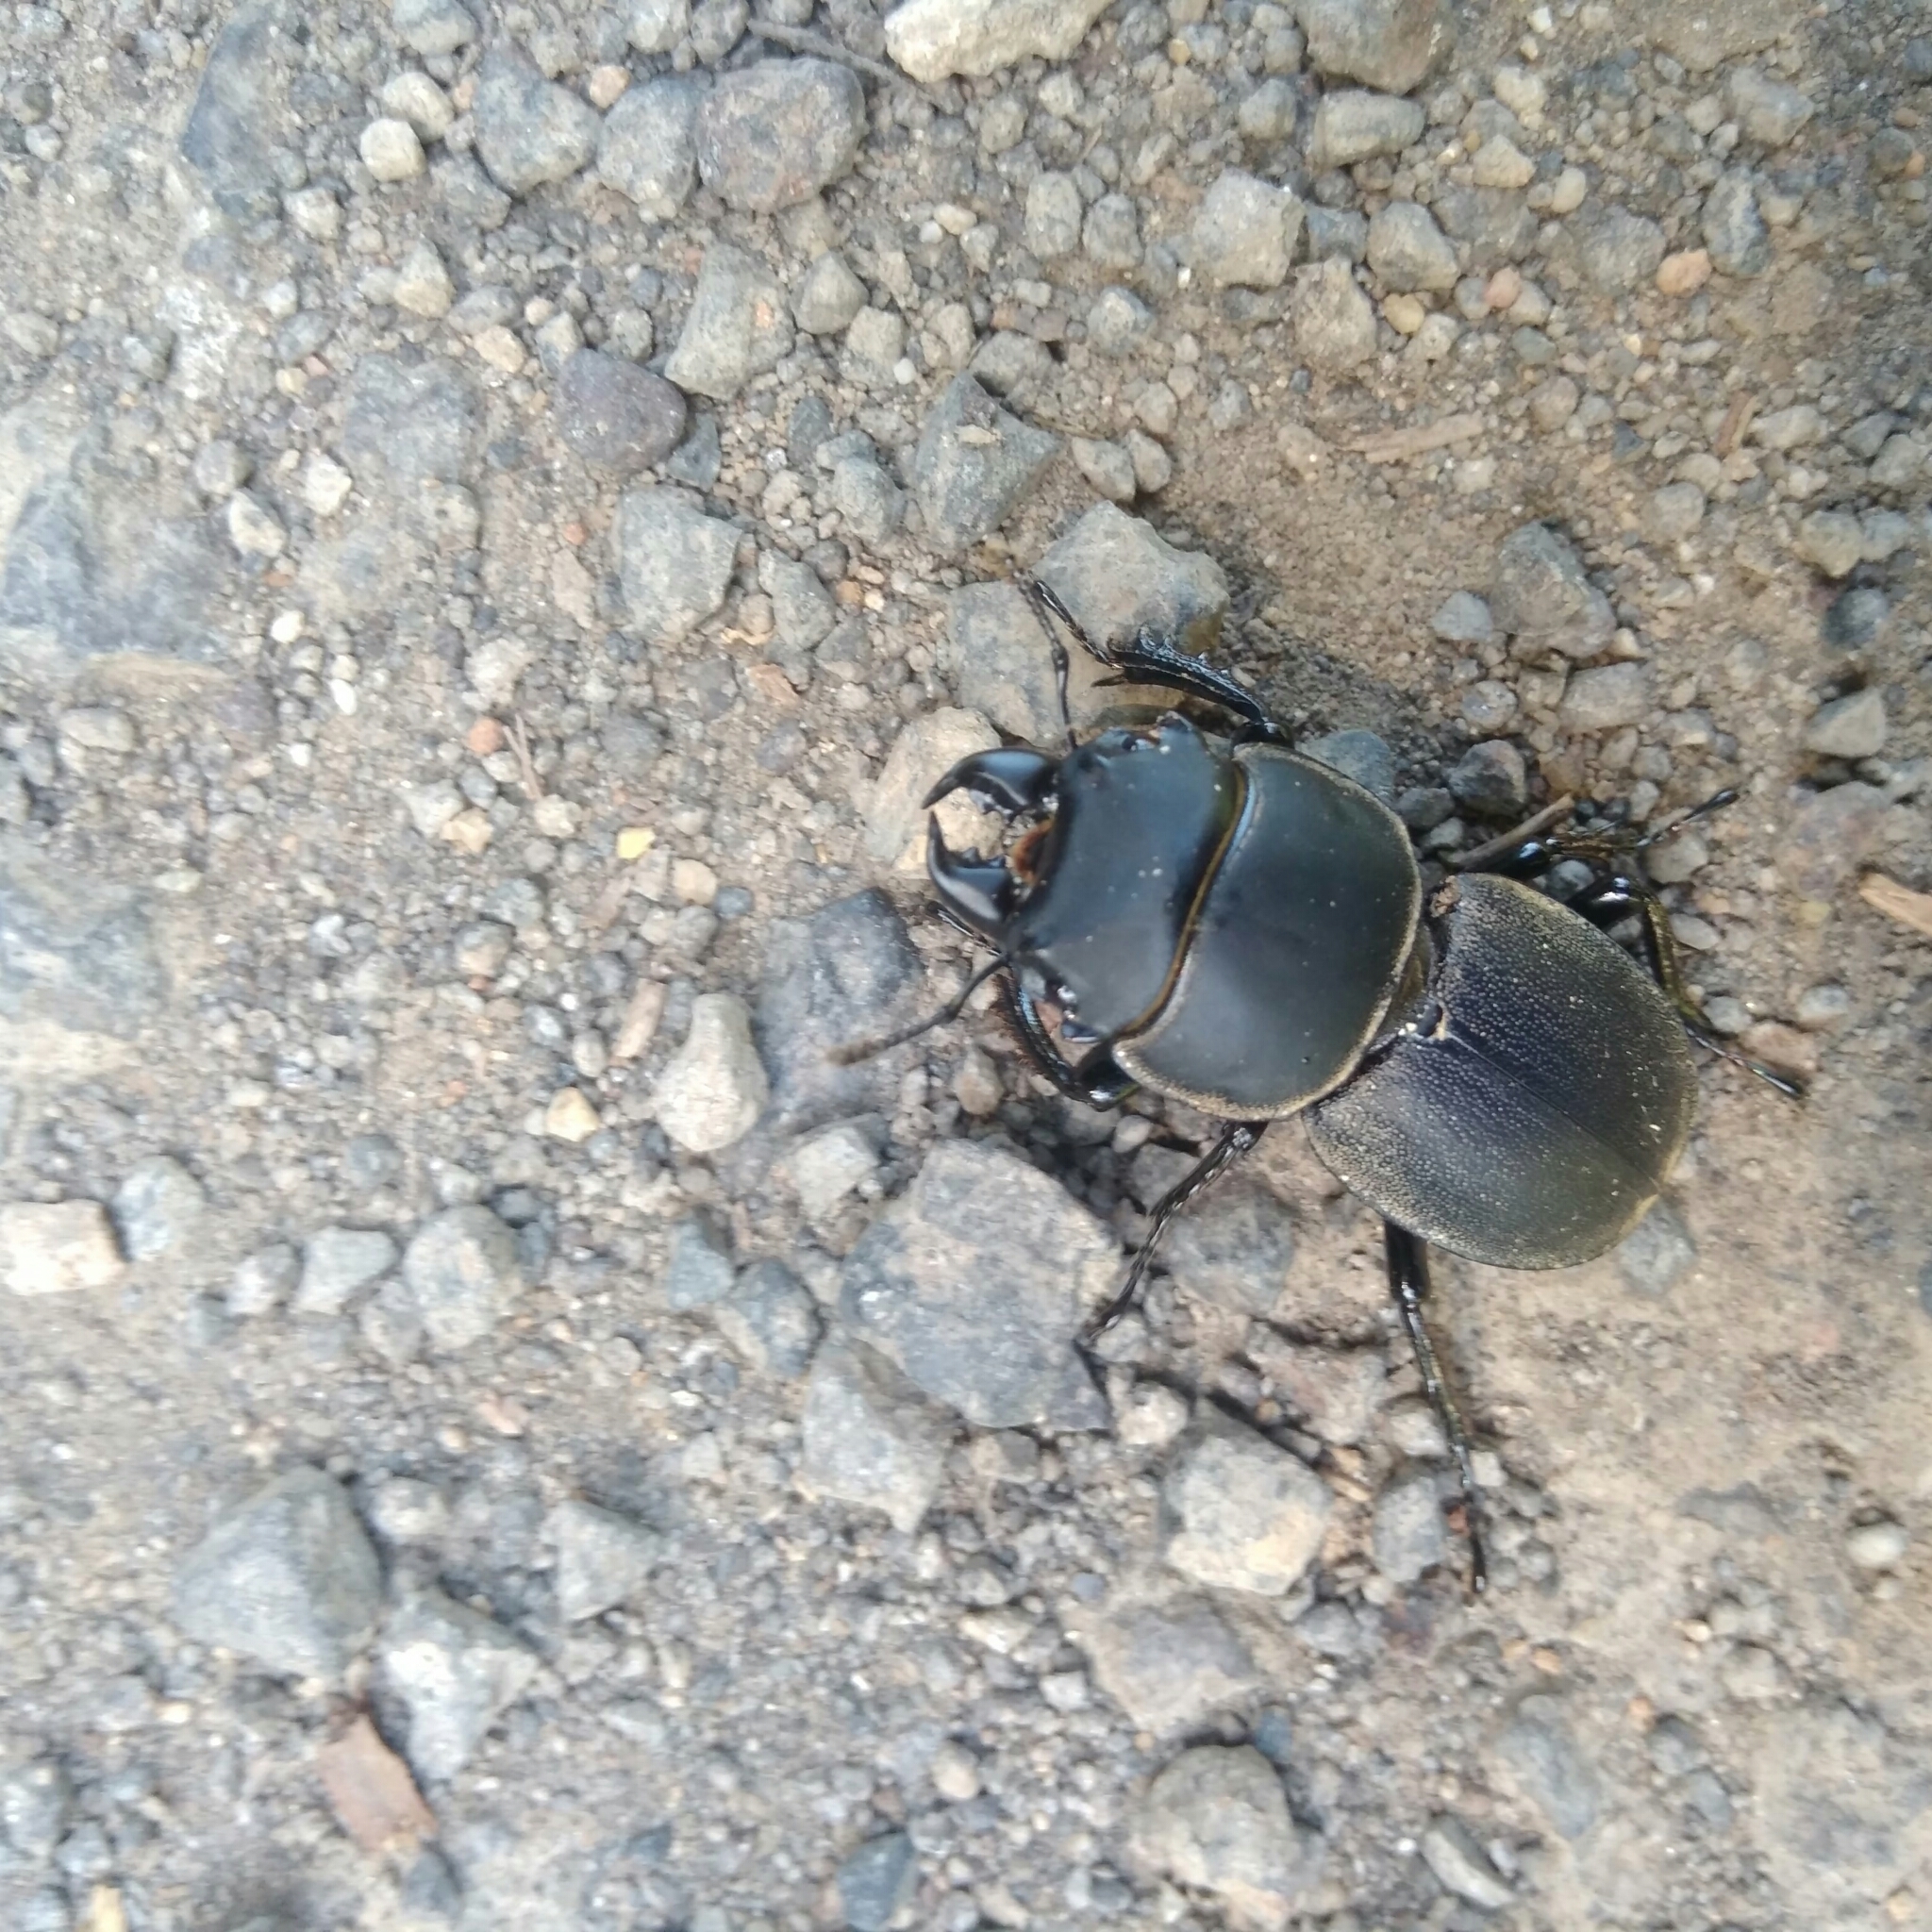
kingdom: Animalia
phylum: Arthropoda
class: Insecta
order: Coleoptera
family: Lucanidae
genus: Apterodorcus
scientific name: Apterodorcus bacchus
